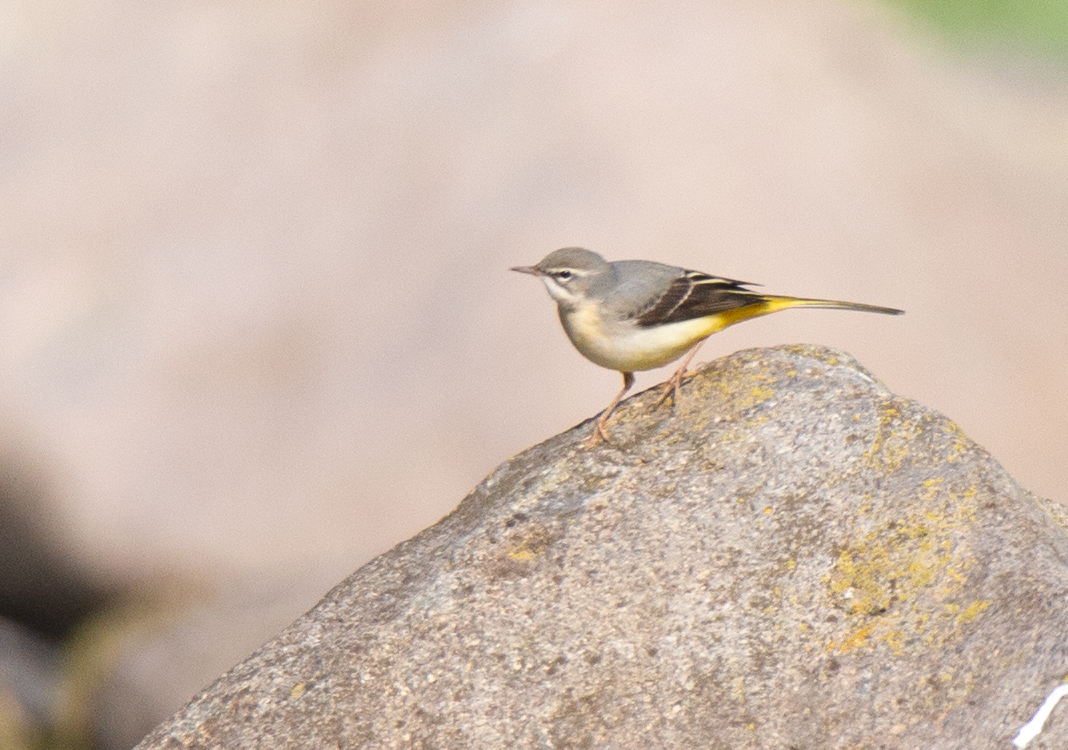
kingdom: Animalia
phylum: Chordata
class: Aves
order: Passeriformes
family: Motacillidae
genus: Motacilla
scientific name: Motacilla cinerea
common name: Grey wagtail
